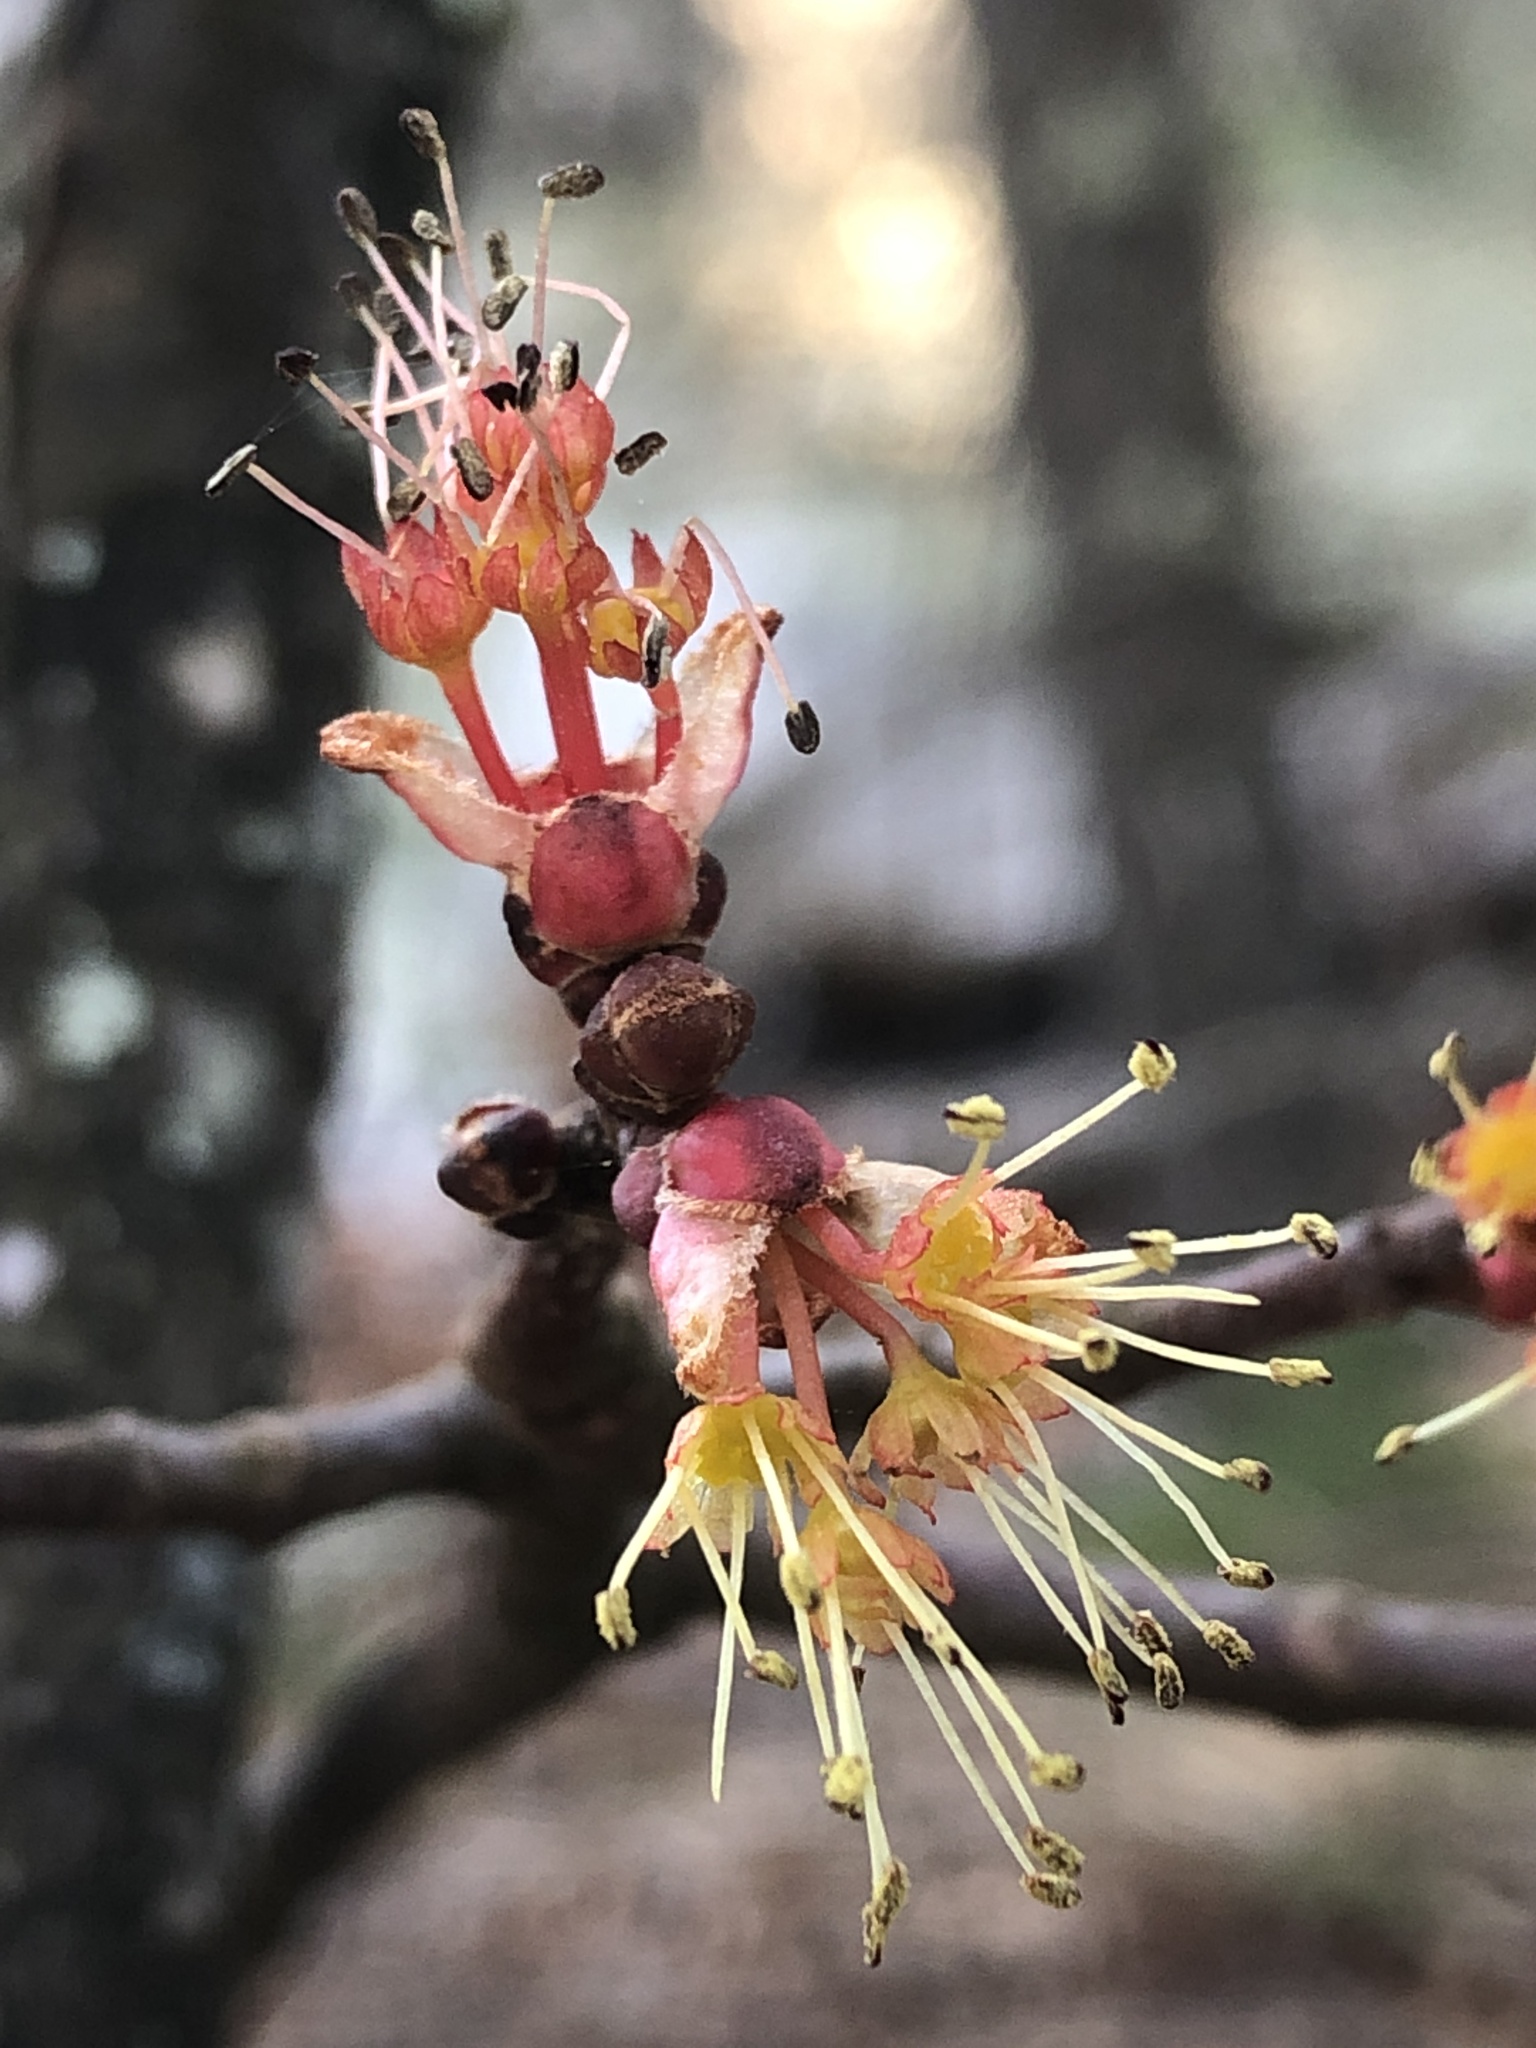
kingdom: Plantae
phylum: Tracheophyta
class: Magnoliopsida
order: Sapindales
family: Sapindaceae
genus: Acer
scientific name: Acer rubrum
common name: Red maple
